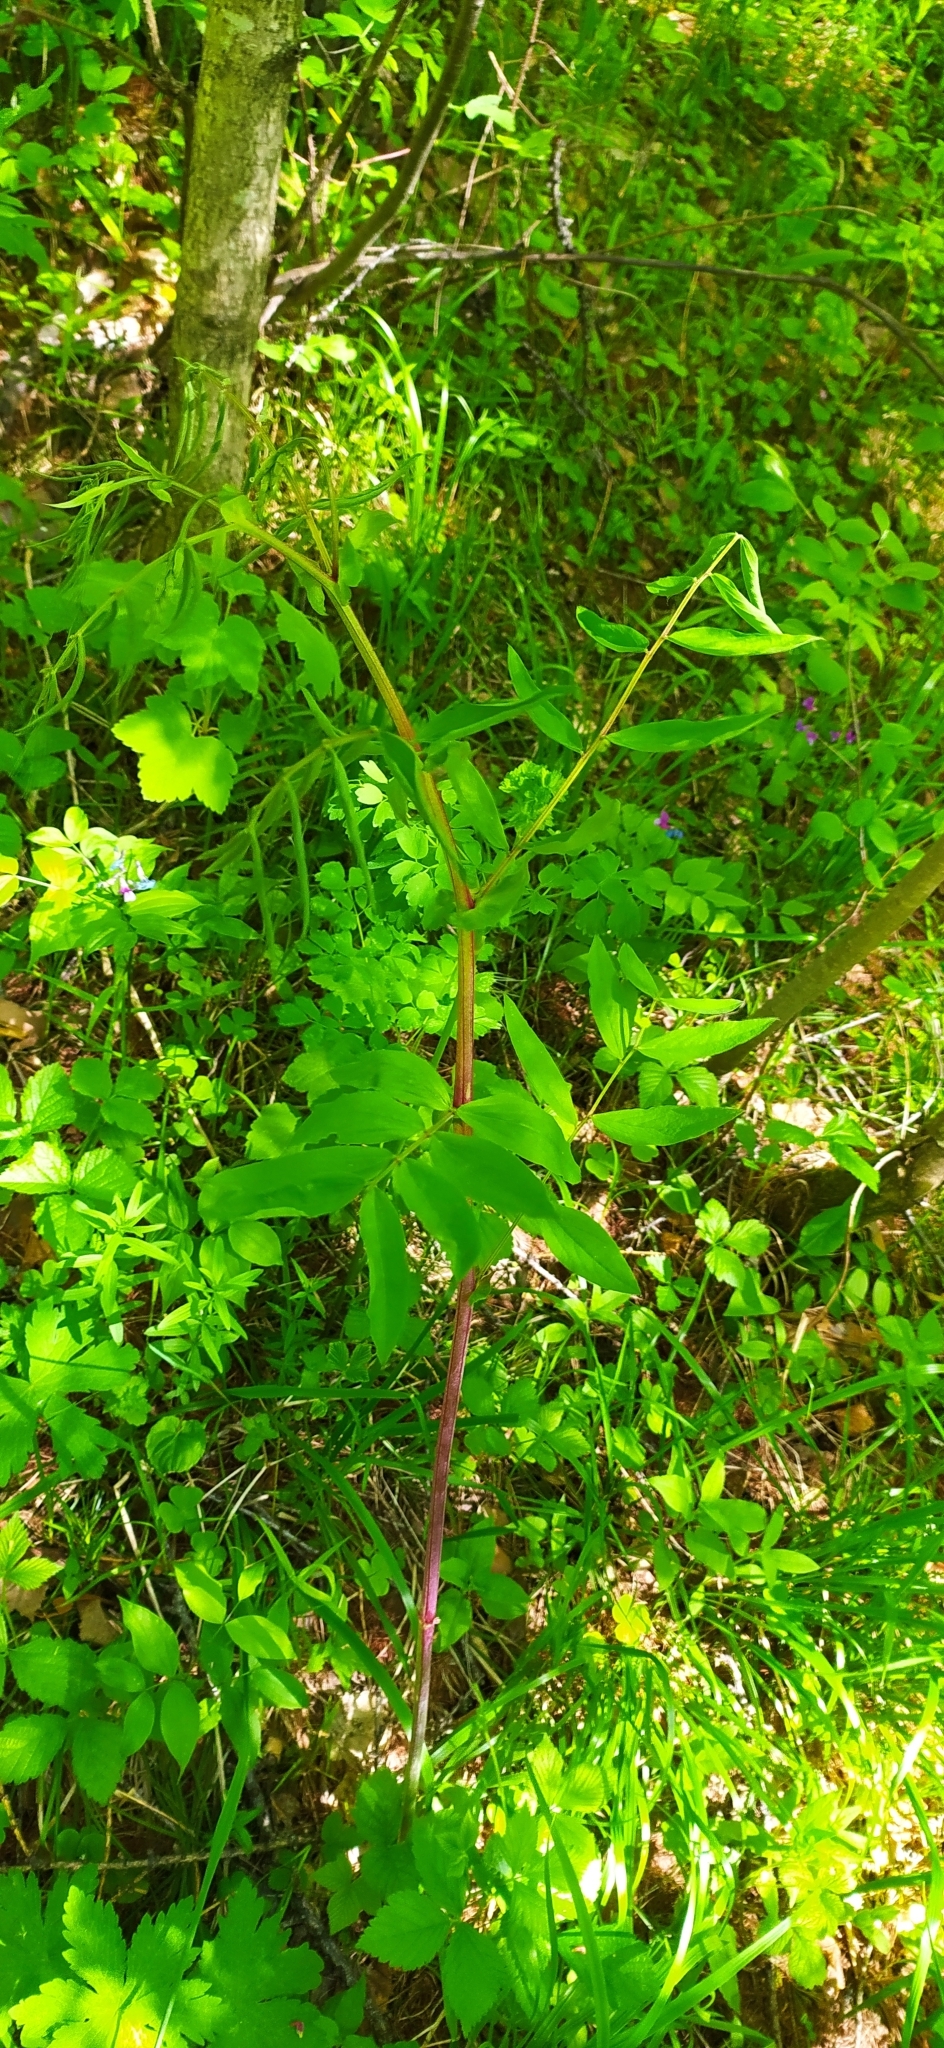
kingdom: Plantae
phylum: Tracheophyta
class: Magnoliopsida
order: Fabales
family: Fabaceae
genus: Lathyrus
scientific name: Lathyrus gmelinii
